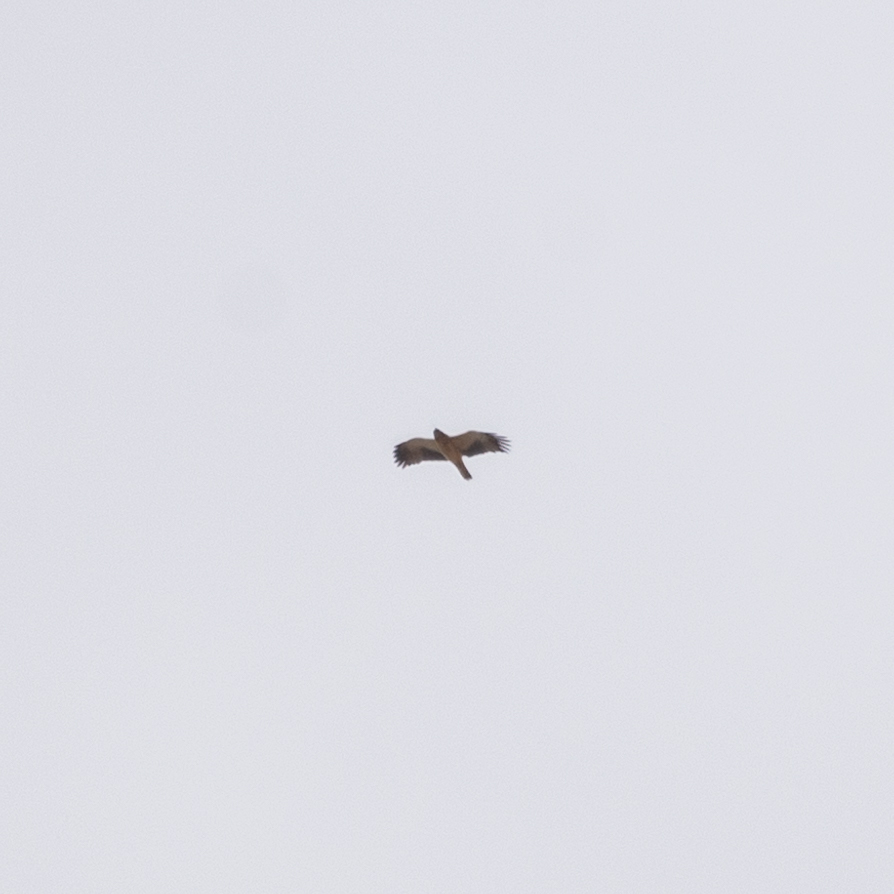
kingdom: Animalia
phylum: Chordata
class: Aves
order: Accipitriformes
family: Accipitridae
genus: Hieraaetus
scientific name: Hieraaetus pennatus
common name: Booted eagle
